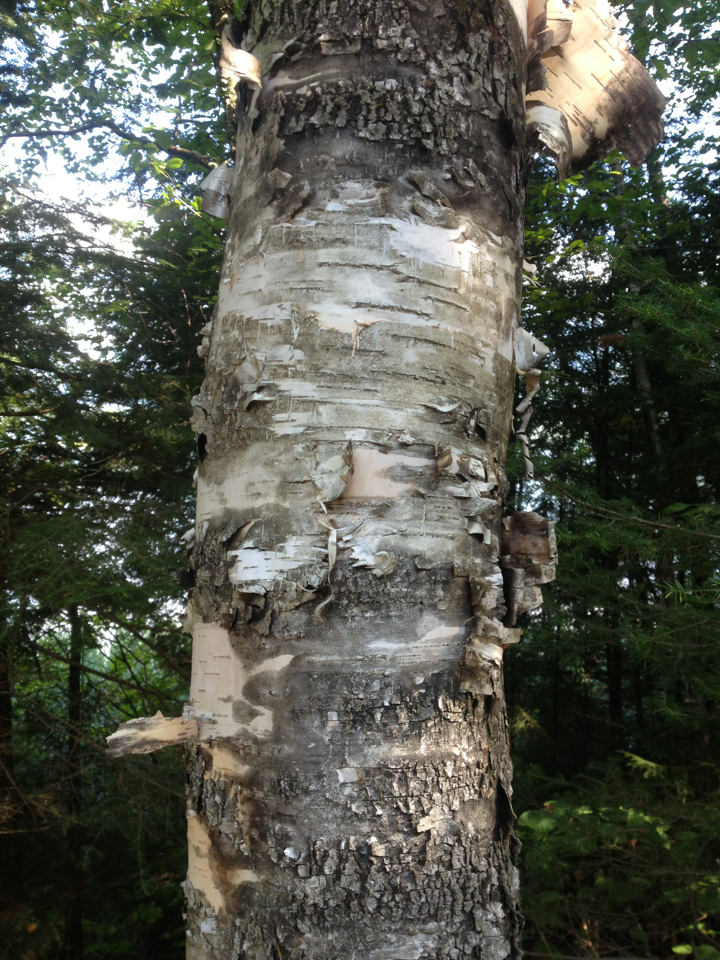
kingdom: Plantae
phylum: Tracheophyta
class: Magnoliopsida
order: Fagales
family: Betulaceae
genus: Betula
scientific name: Betula papyrifera
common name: Paper birch
